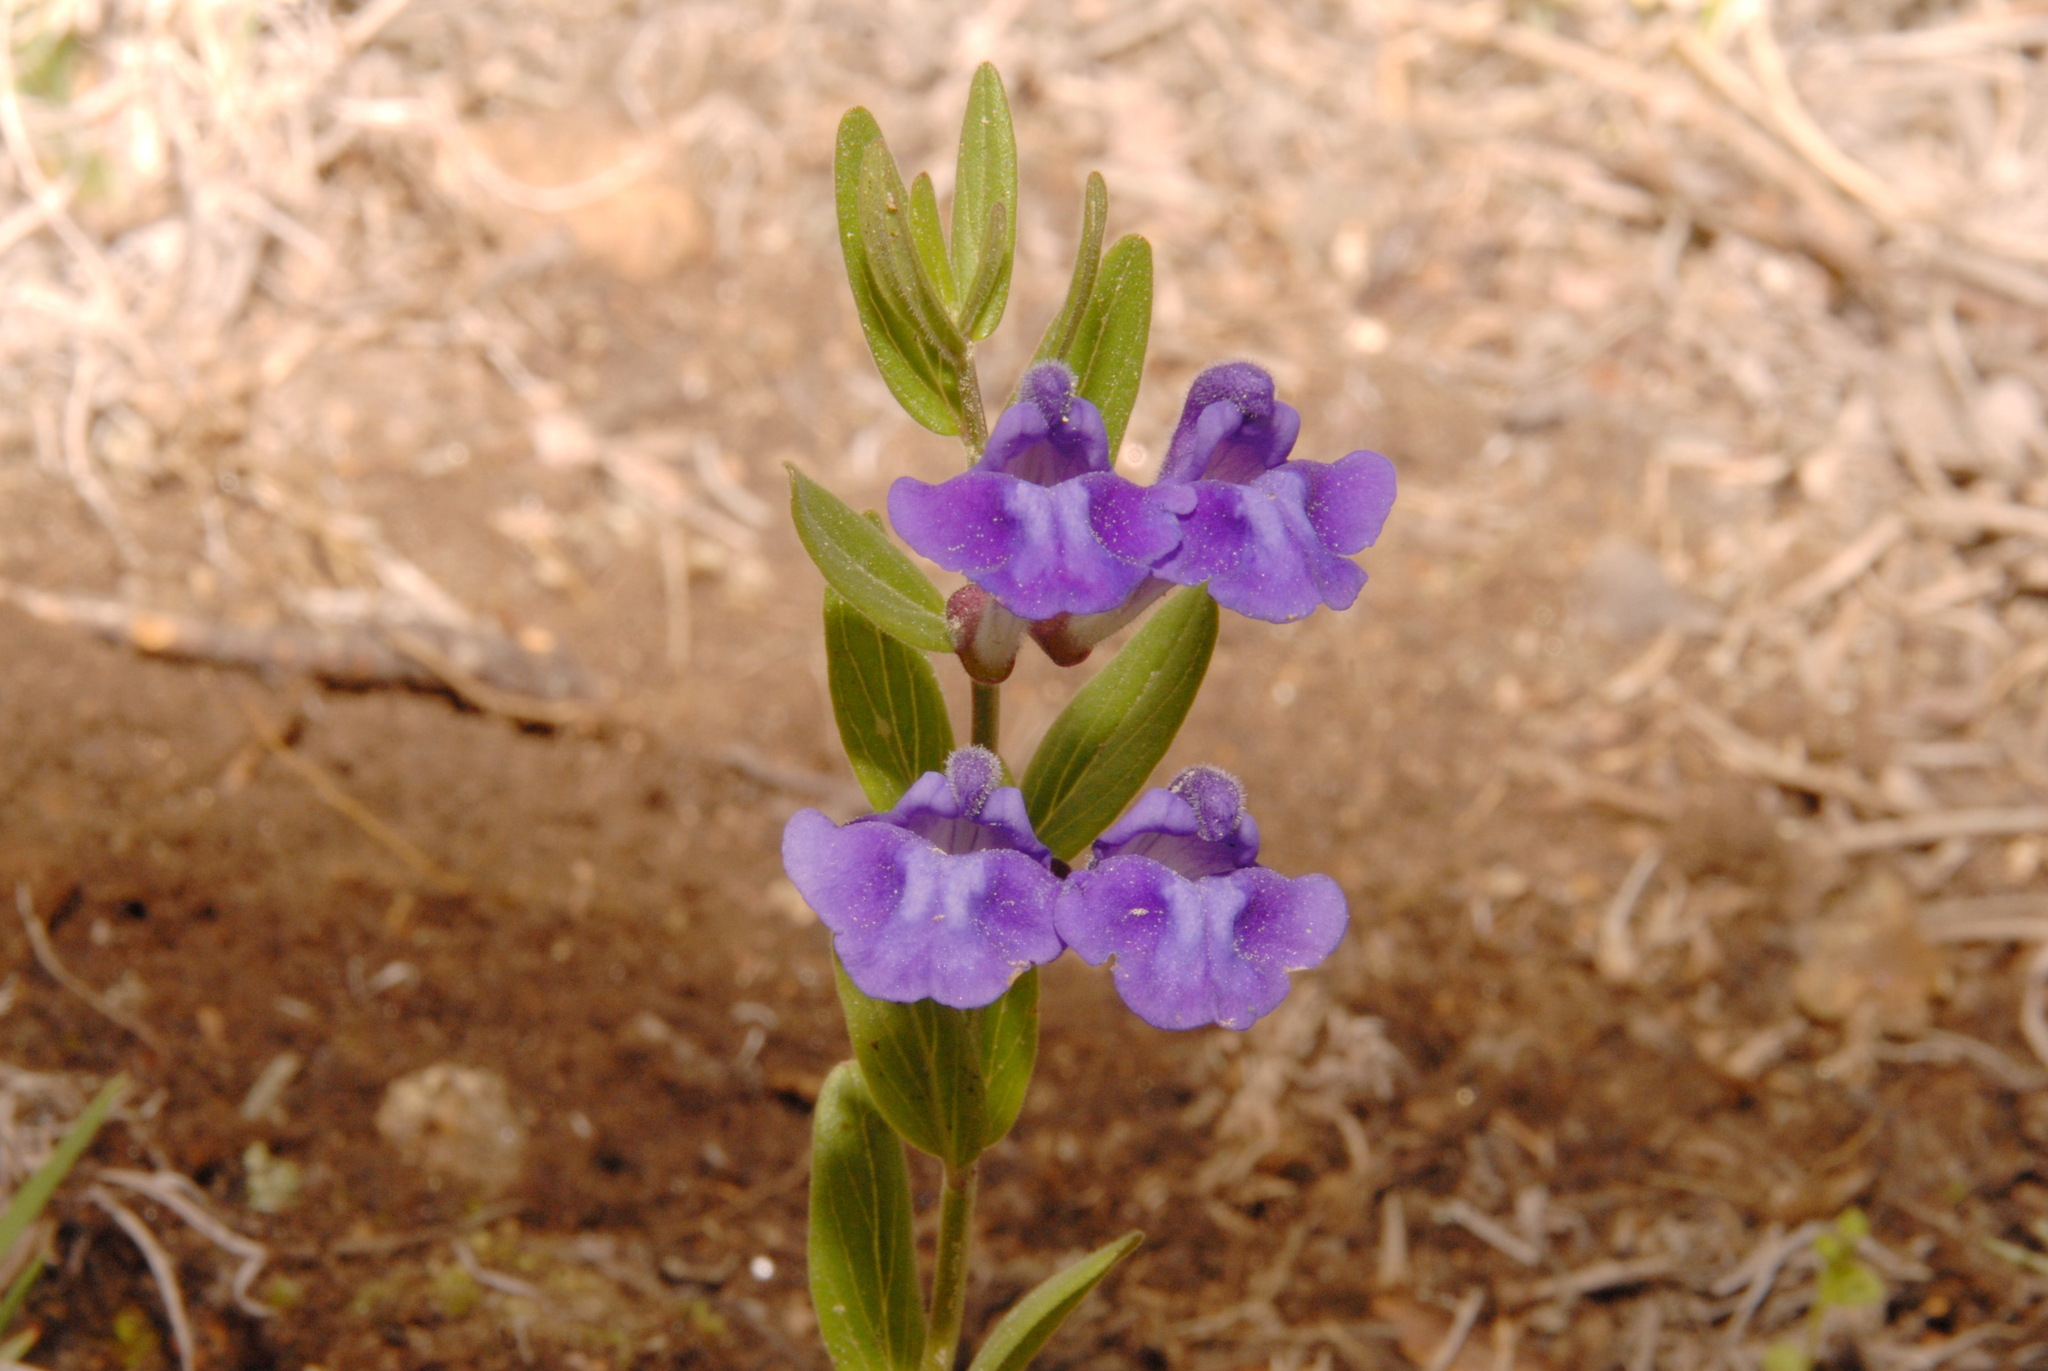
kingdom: Plantae
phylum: Tracheophyta
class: Magnoliopsida
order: Lamiales
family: Lamiaceae
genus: Scutellaria
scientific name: Scutellaria brittonii
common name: Britton's skullcap
